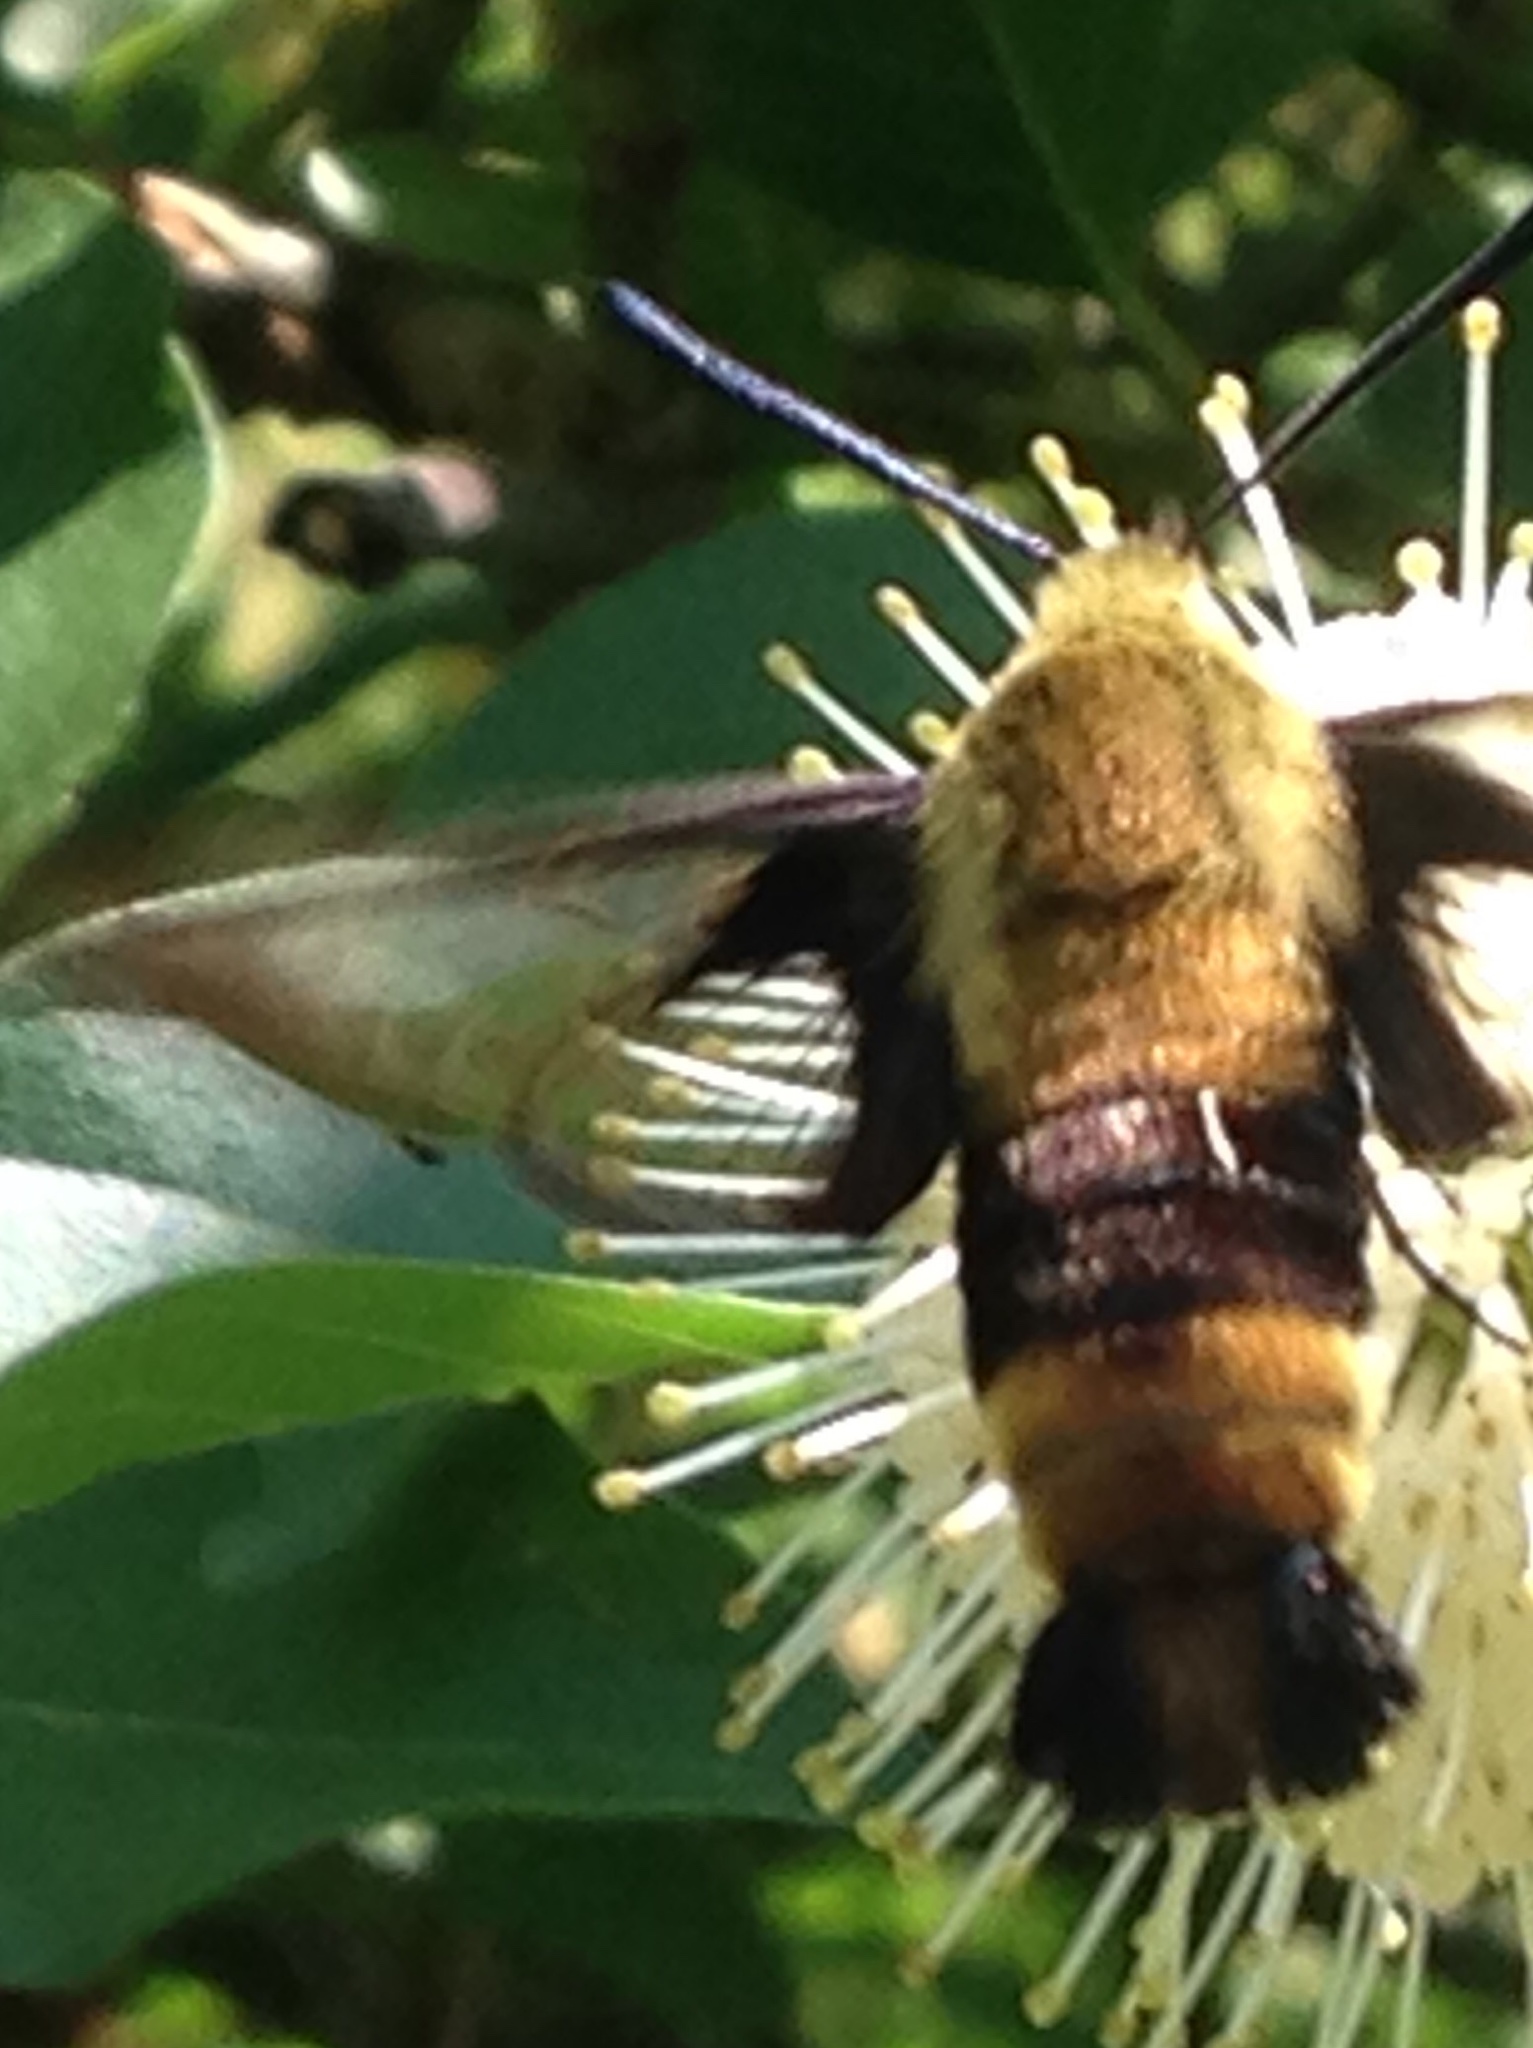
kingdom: Animalia
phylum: Arthropoda
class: Insecta
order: Lepidoptera
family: Sphingidae
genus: Hemaris
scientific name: Hemaris diffinis
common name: Bumblebee moth
